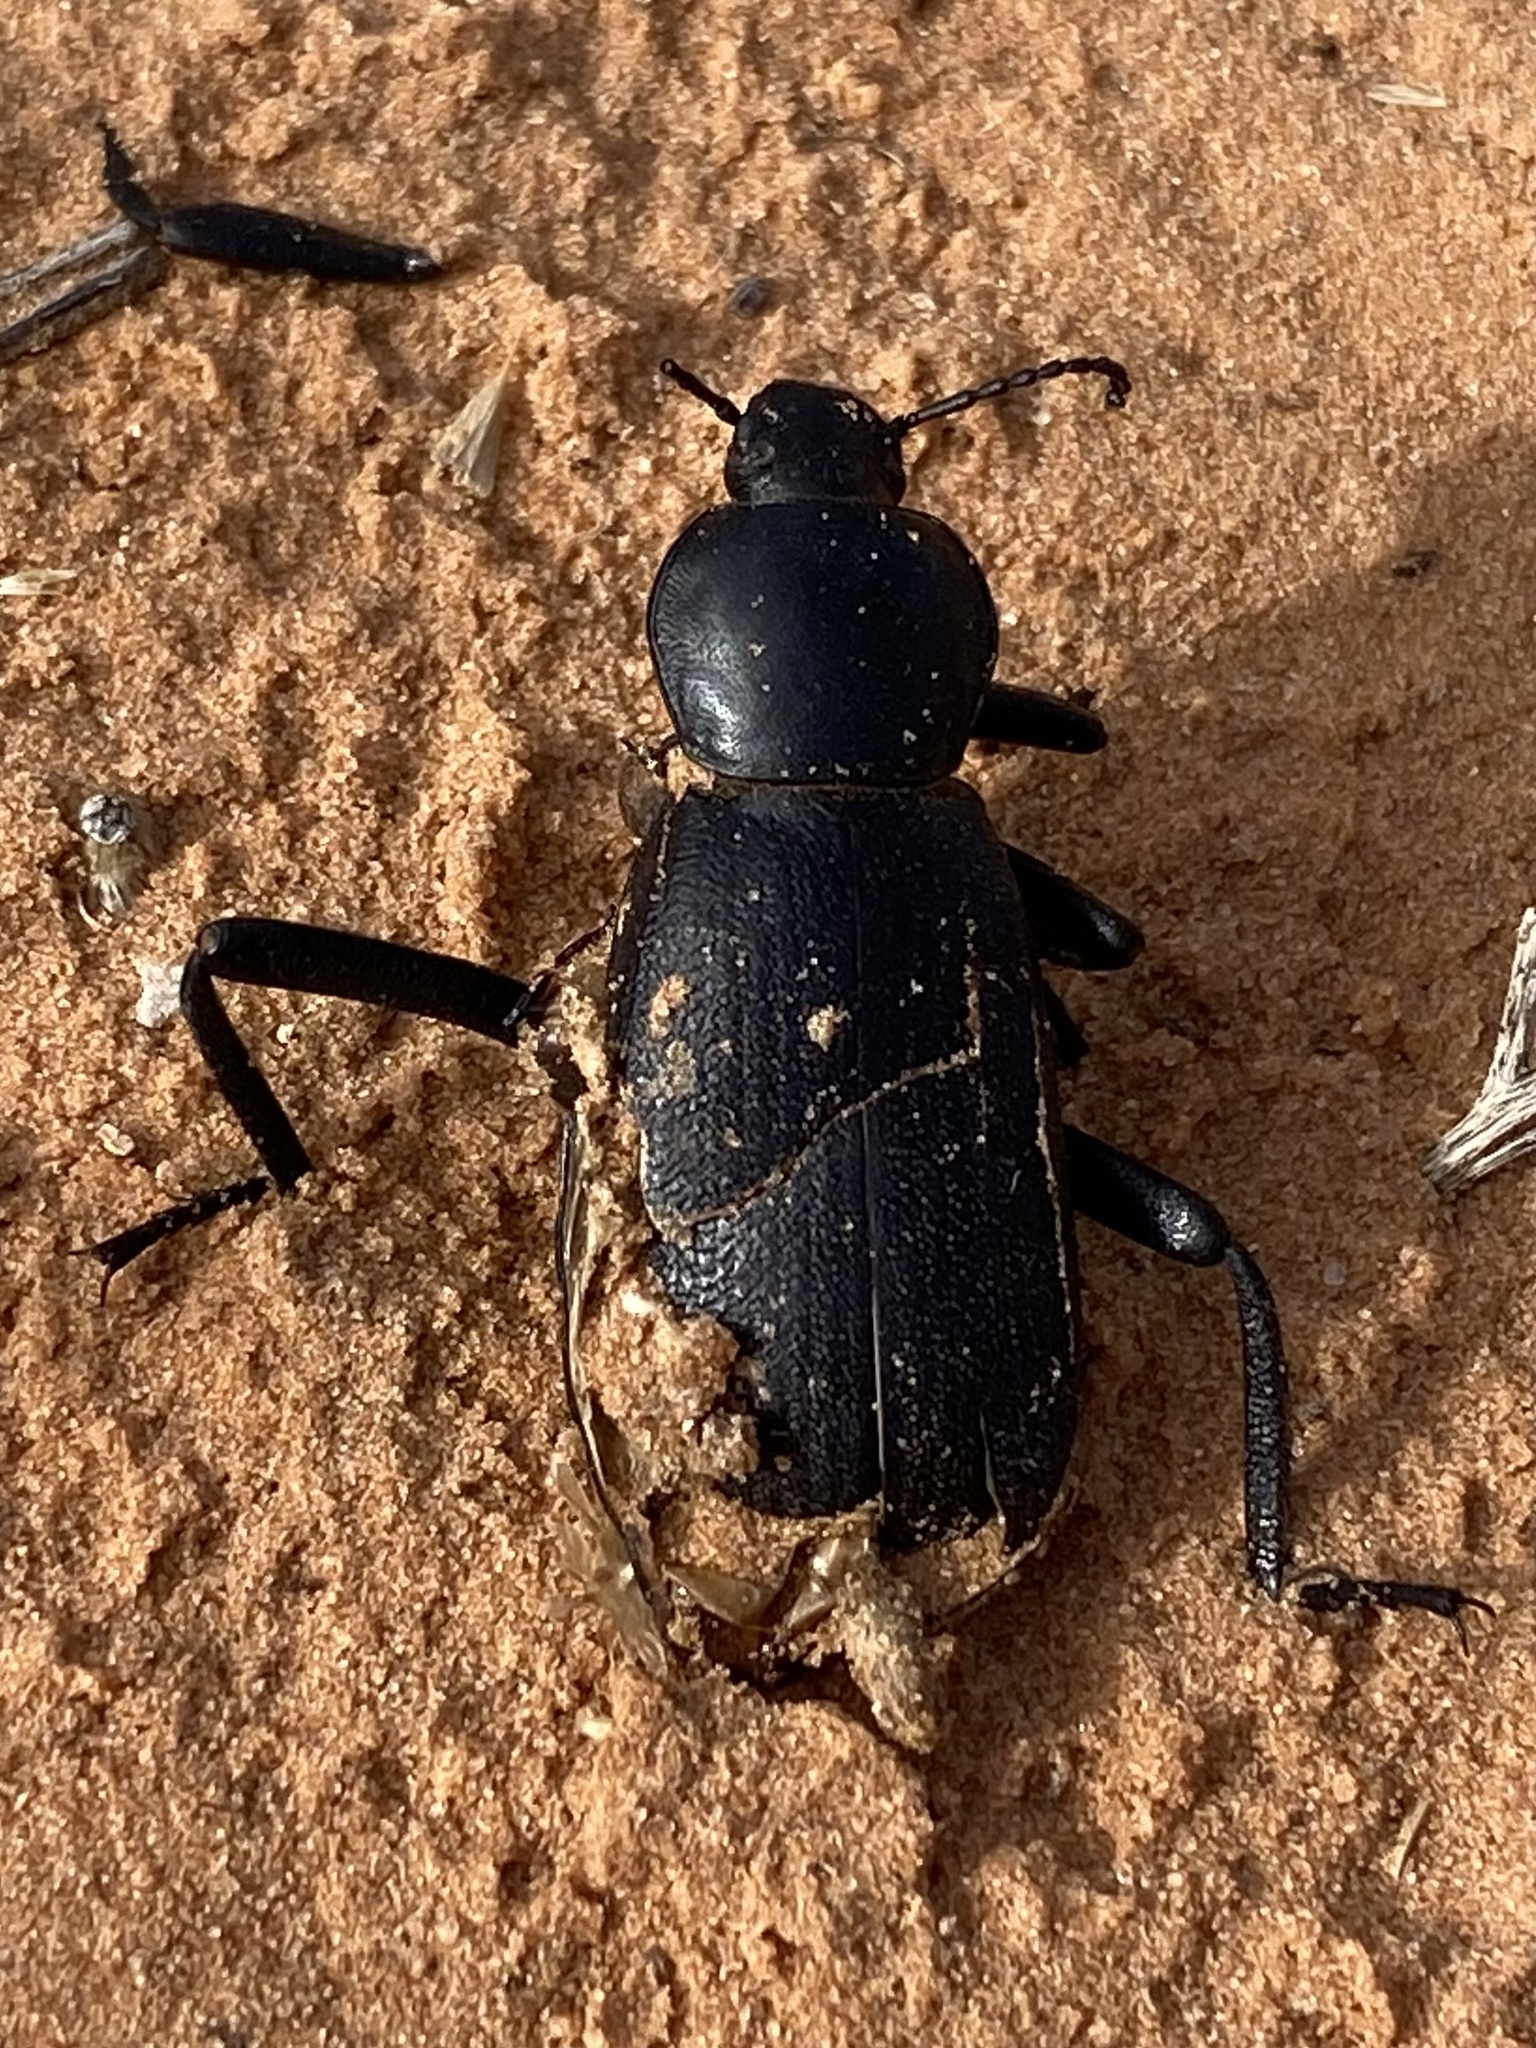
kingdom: Animalia
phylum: Arthropoda
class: Insecta
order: Coleoptera
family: Tenebrionidae
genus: Eleodes
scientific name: Eleodes obscura
